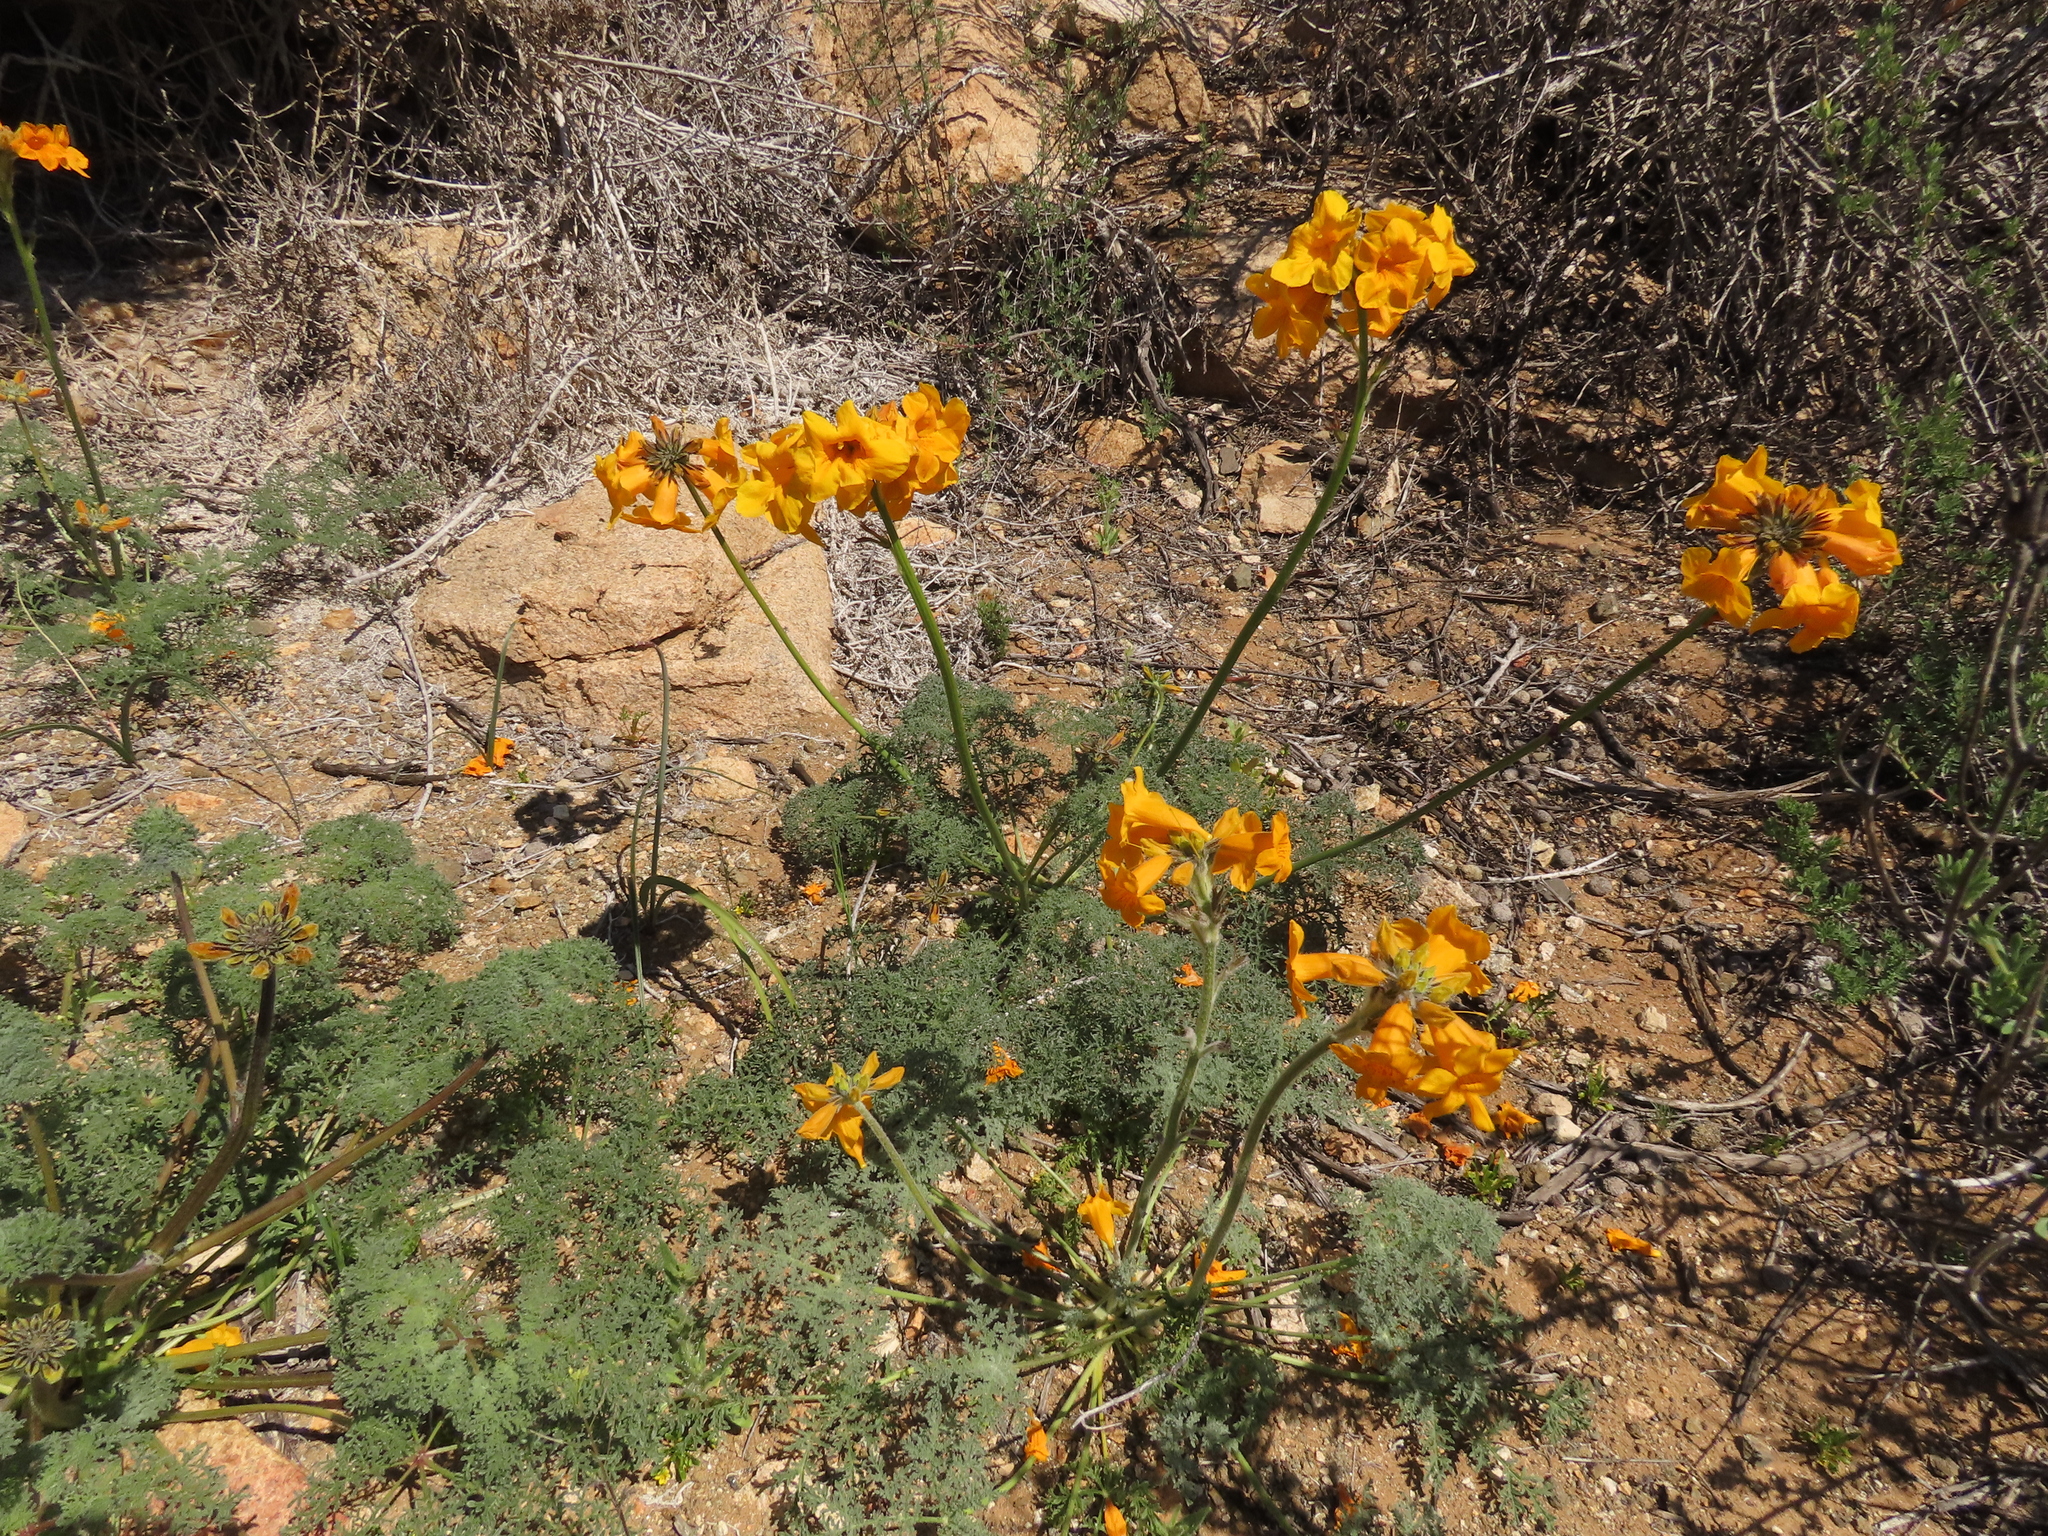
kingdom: Plantae
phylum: Tracheophyta
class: Magnoliopsida
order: Lamiales
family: Bignoniaceae
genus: Argylia
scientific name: Argylia radiata
